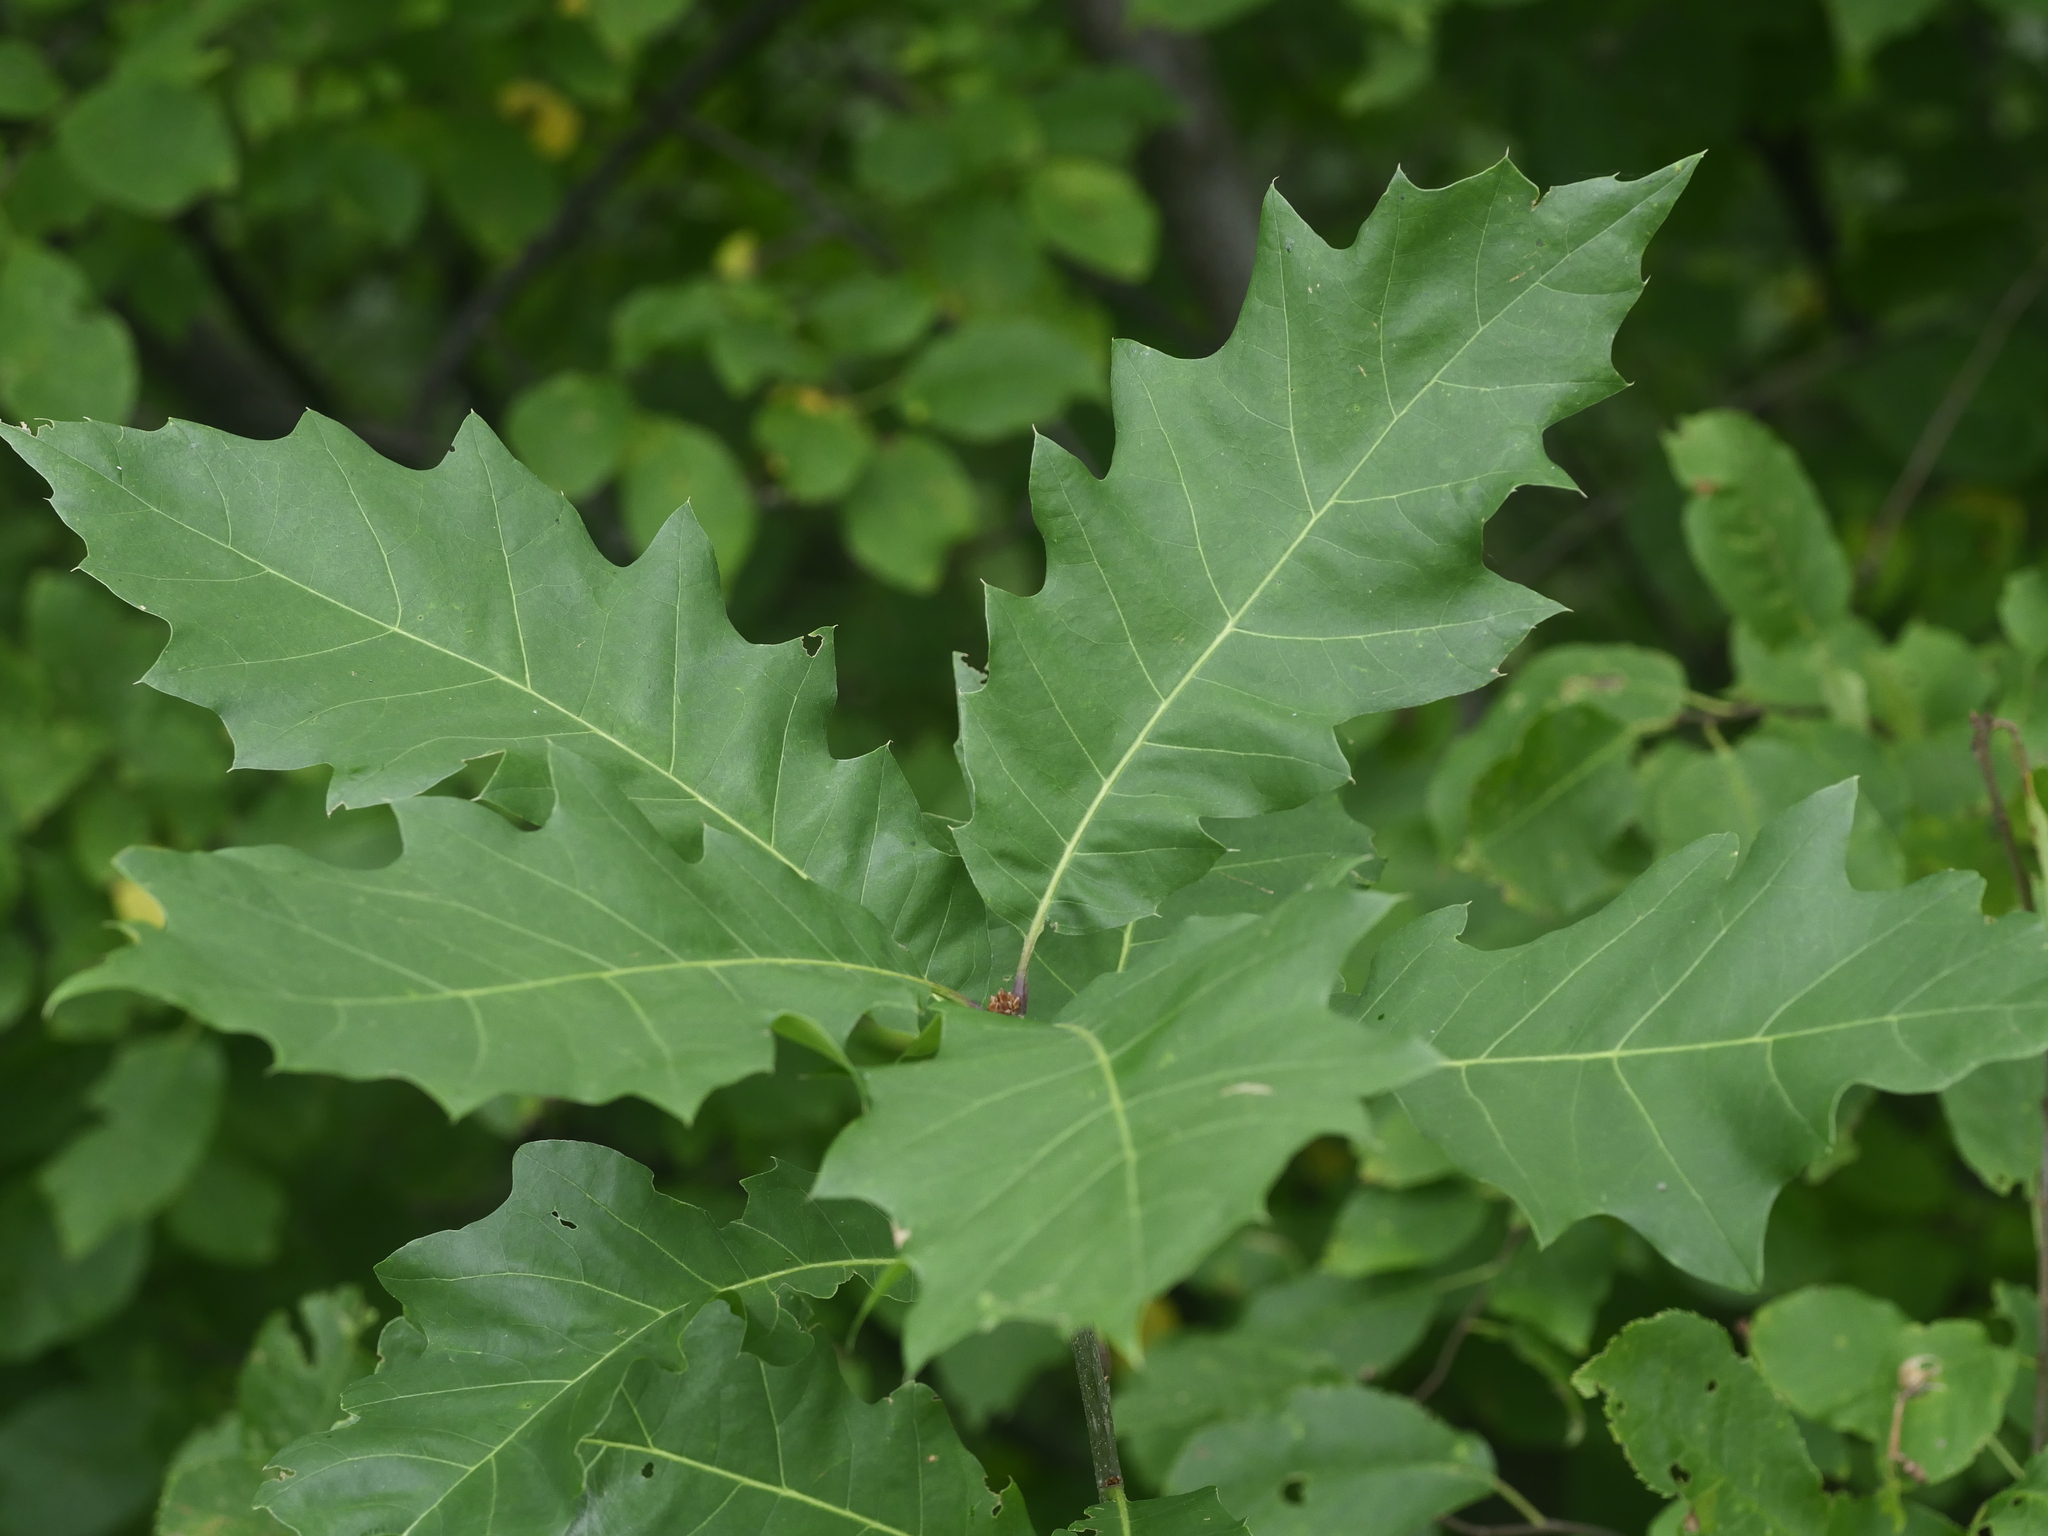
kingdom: Plantae
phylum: Tracheophyta
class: Magnoliopsida
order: Fagales
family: Fagaceae
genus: Quercus
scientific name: Quercus rubra
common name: Red oak
